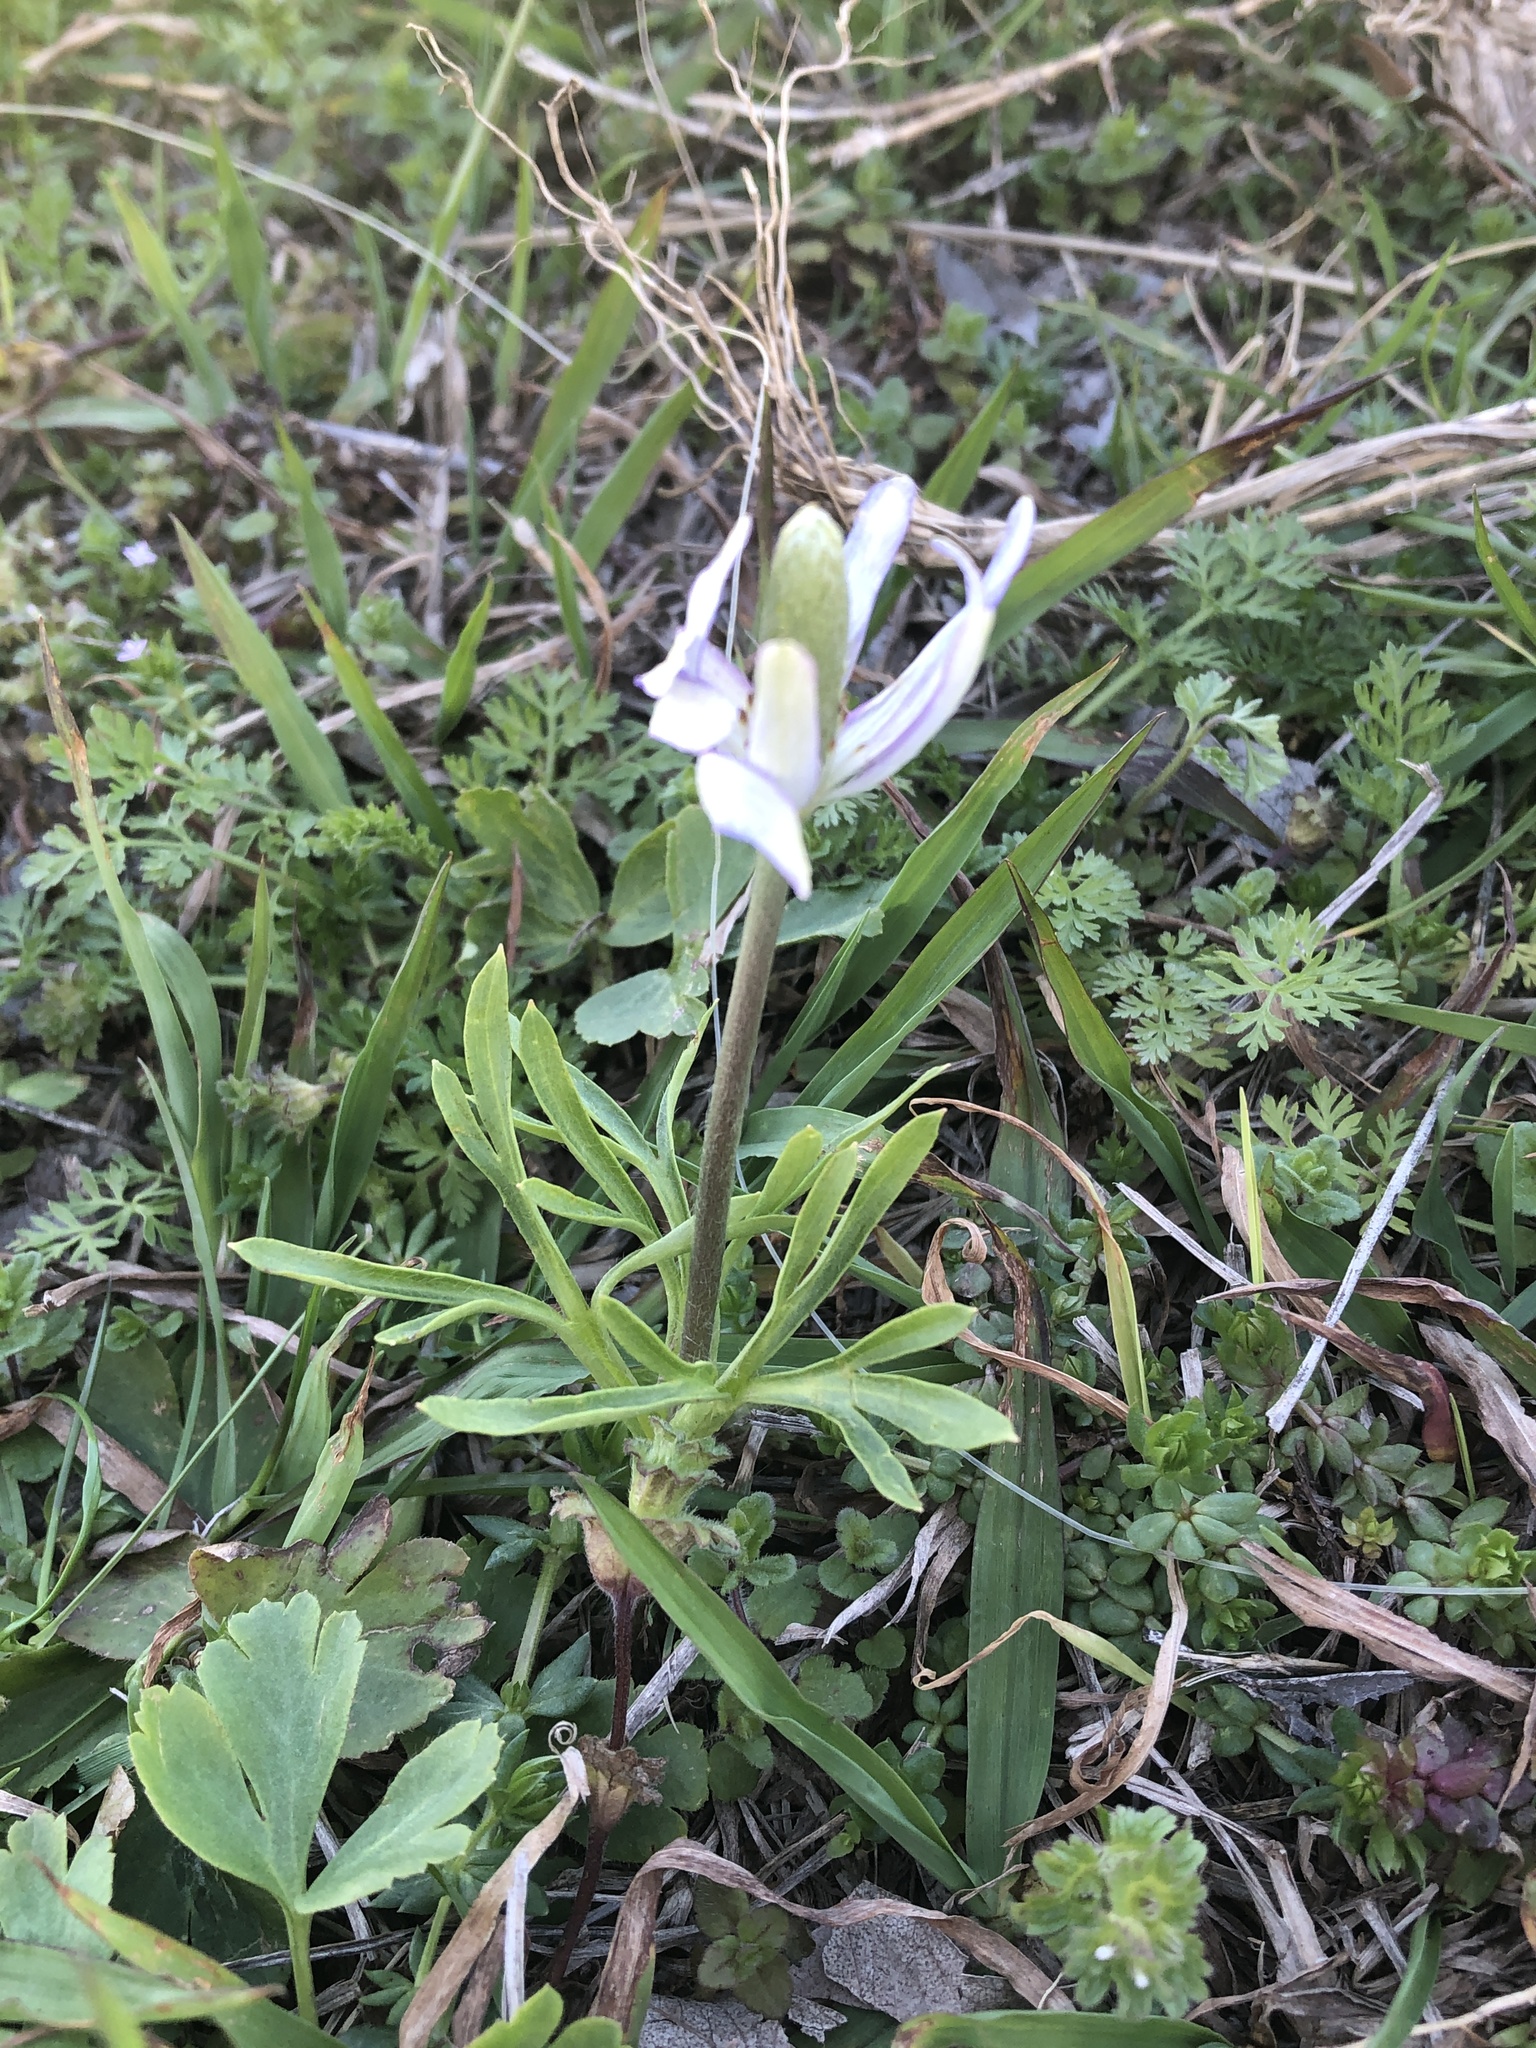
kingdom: Plantae
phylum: Tracheophyta
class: Magnoliopsida
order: Ranunculales
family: Ranunculaceae
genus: Anemone
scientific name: Anemone berlandieri
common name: Ten-petal anemone
